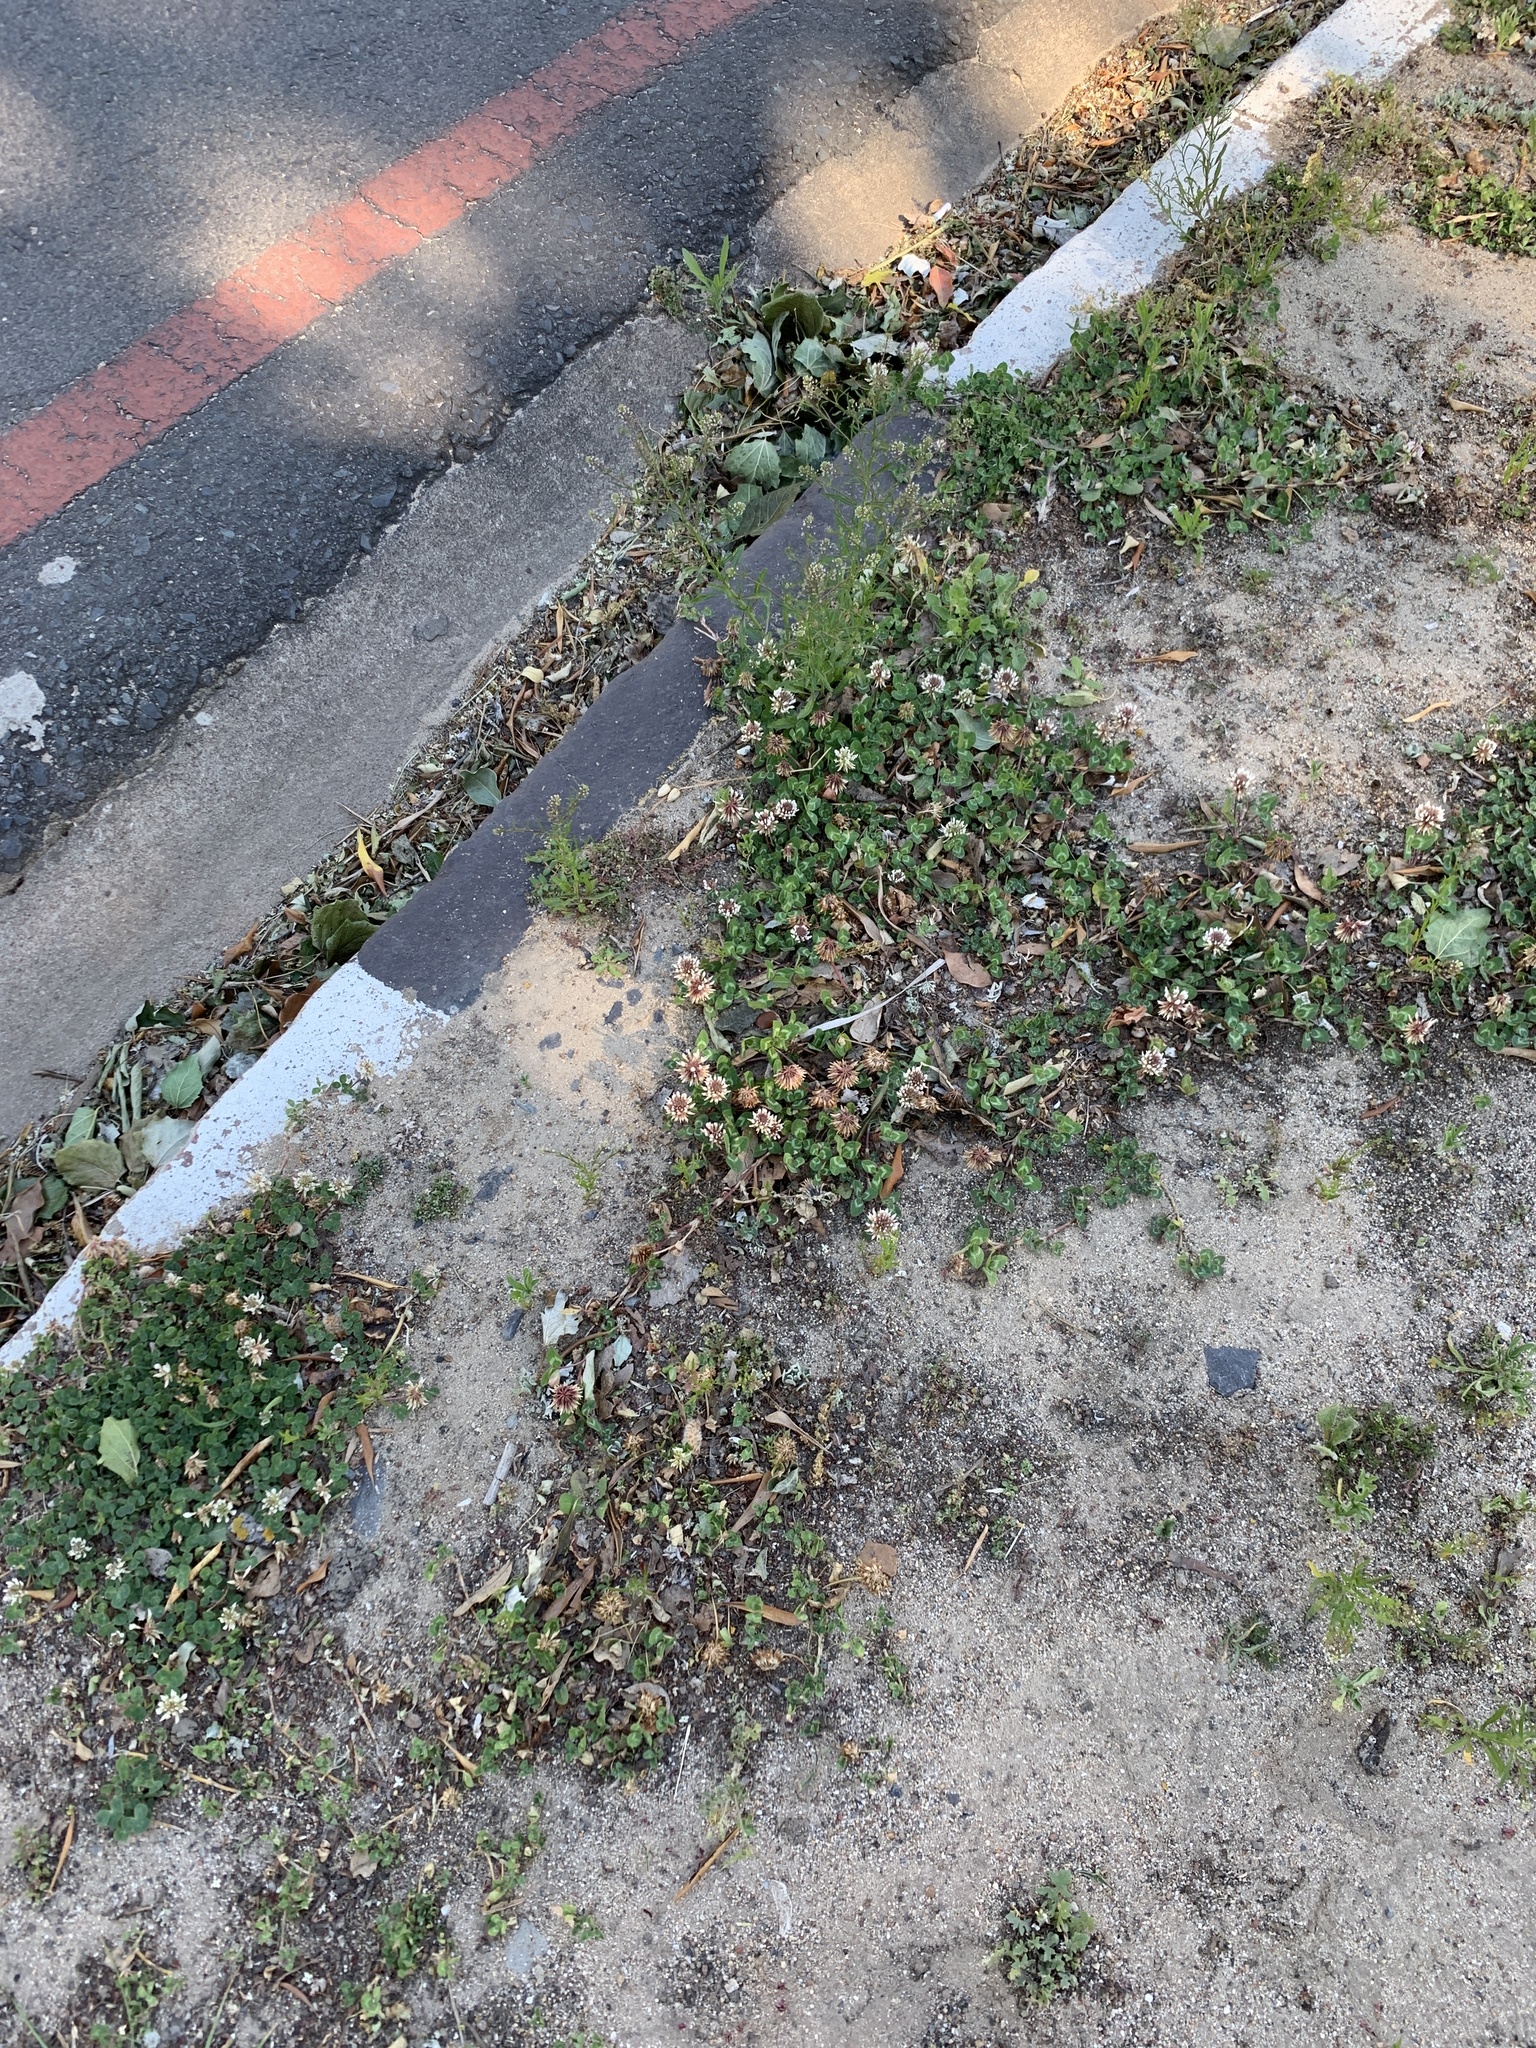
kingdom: Plantae
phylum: Tracheophyta
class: Magnoliopsida
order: Fabales
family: Fabaceae
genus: Trifolium
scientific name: Trifolium repens
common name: White clover
